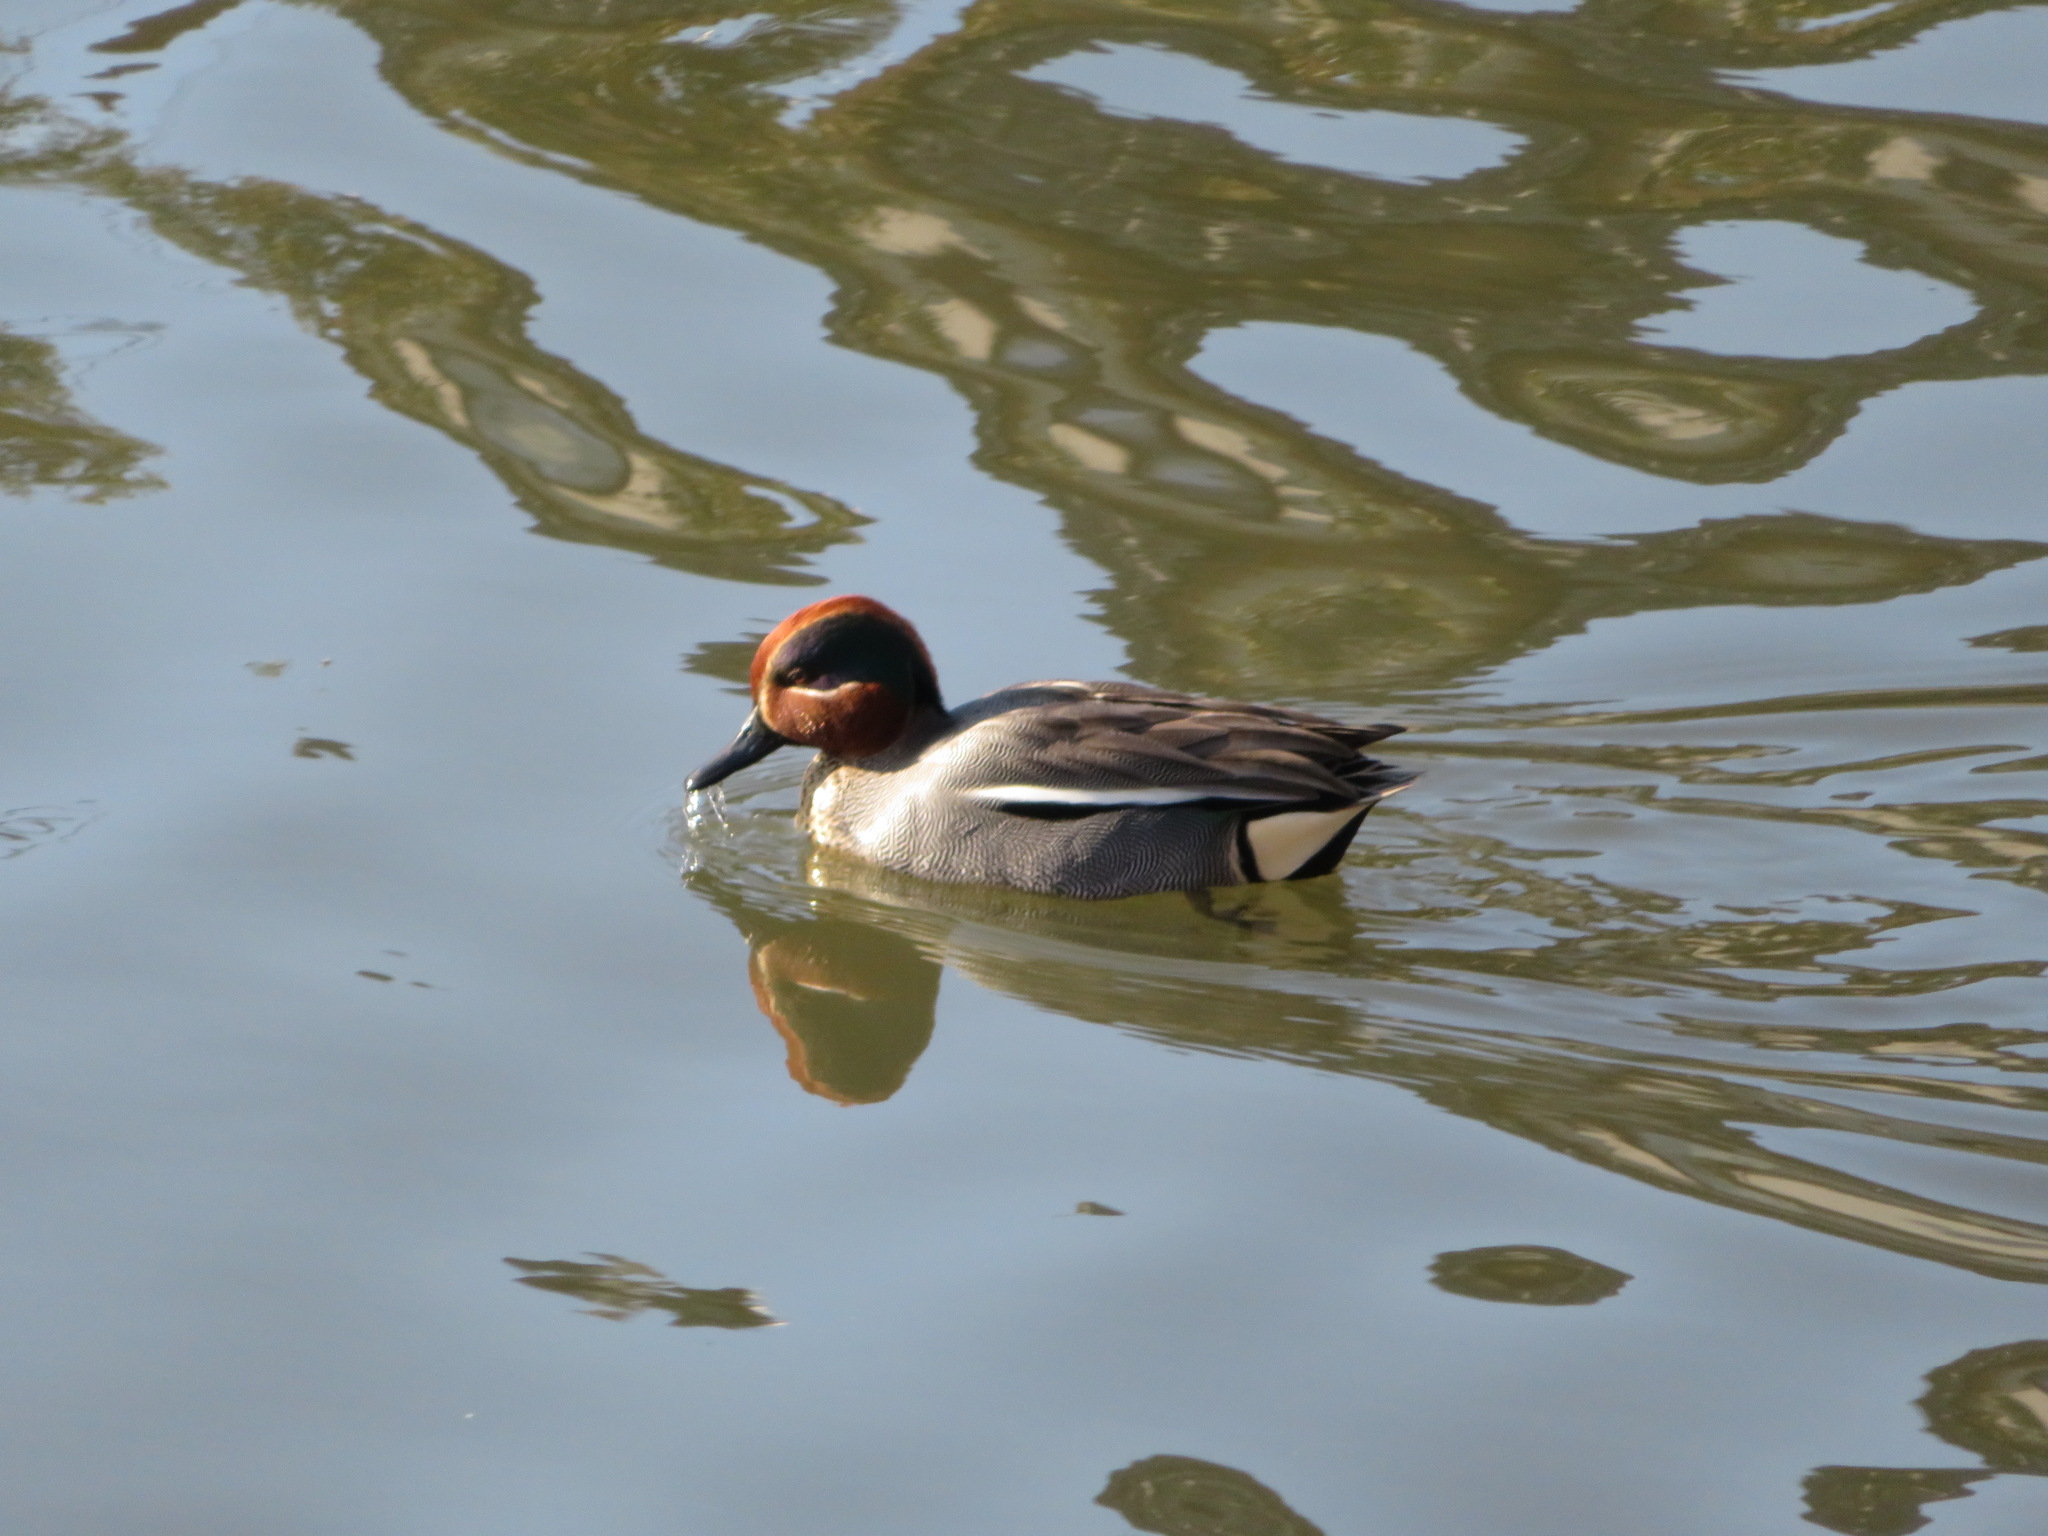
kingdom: Animalia
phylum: Chordata
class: Aves
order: Anseriformes
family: Anatidae
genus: Anas
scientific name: Anas crecca
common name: Eurasian teal
